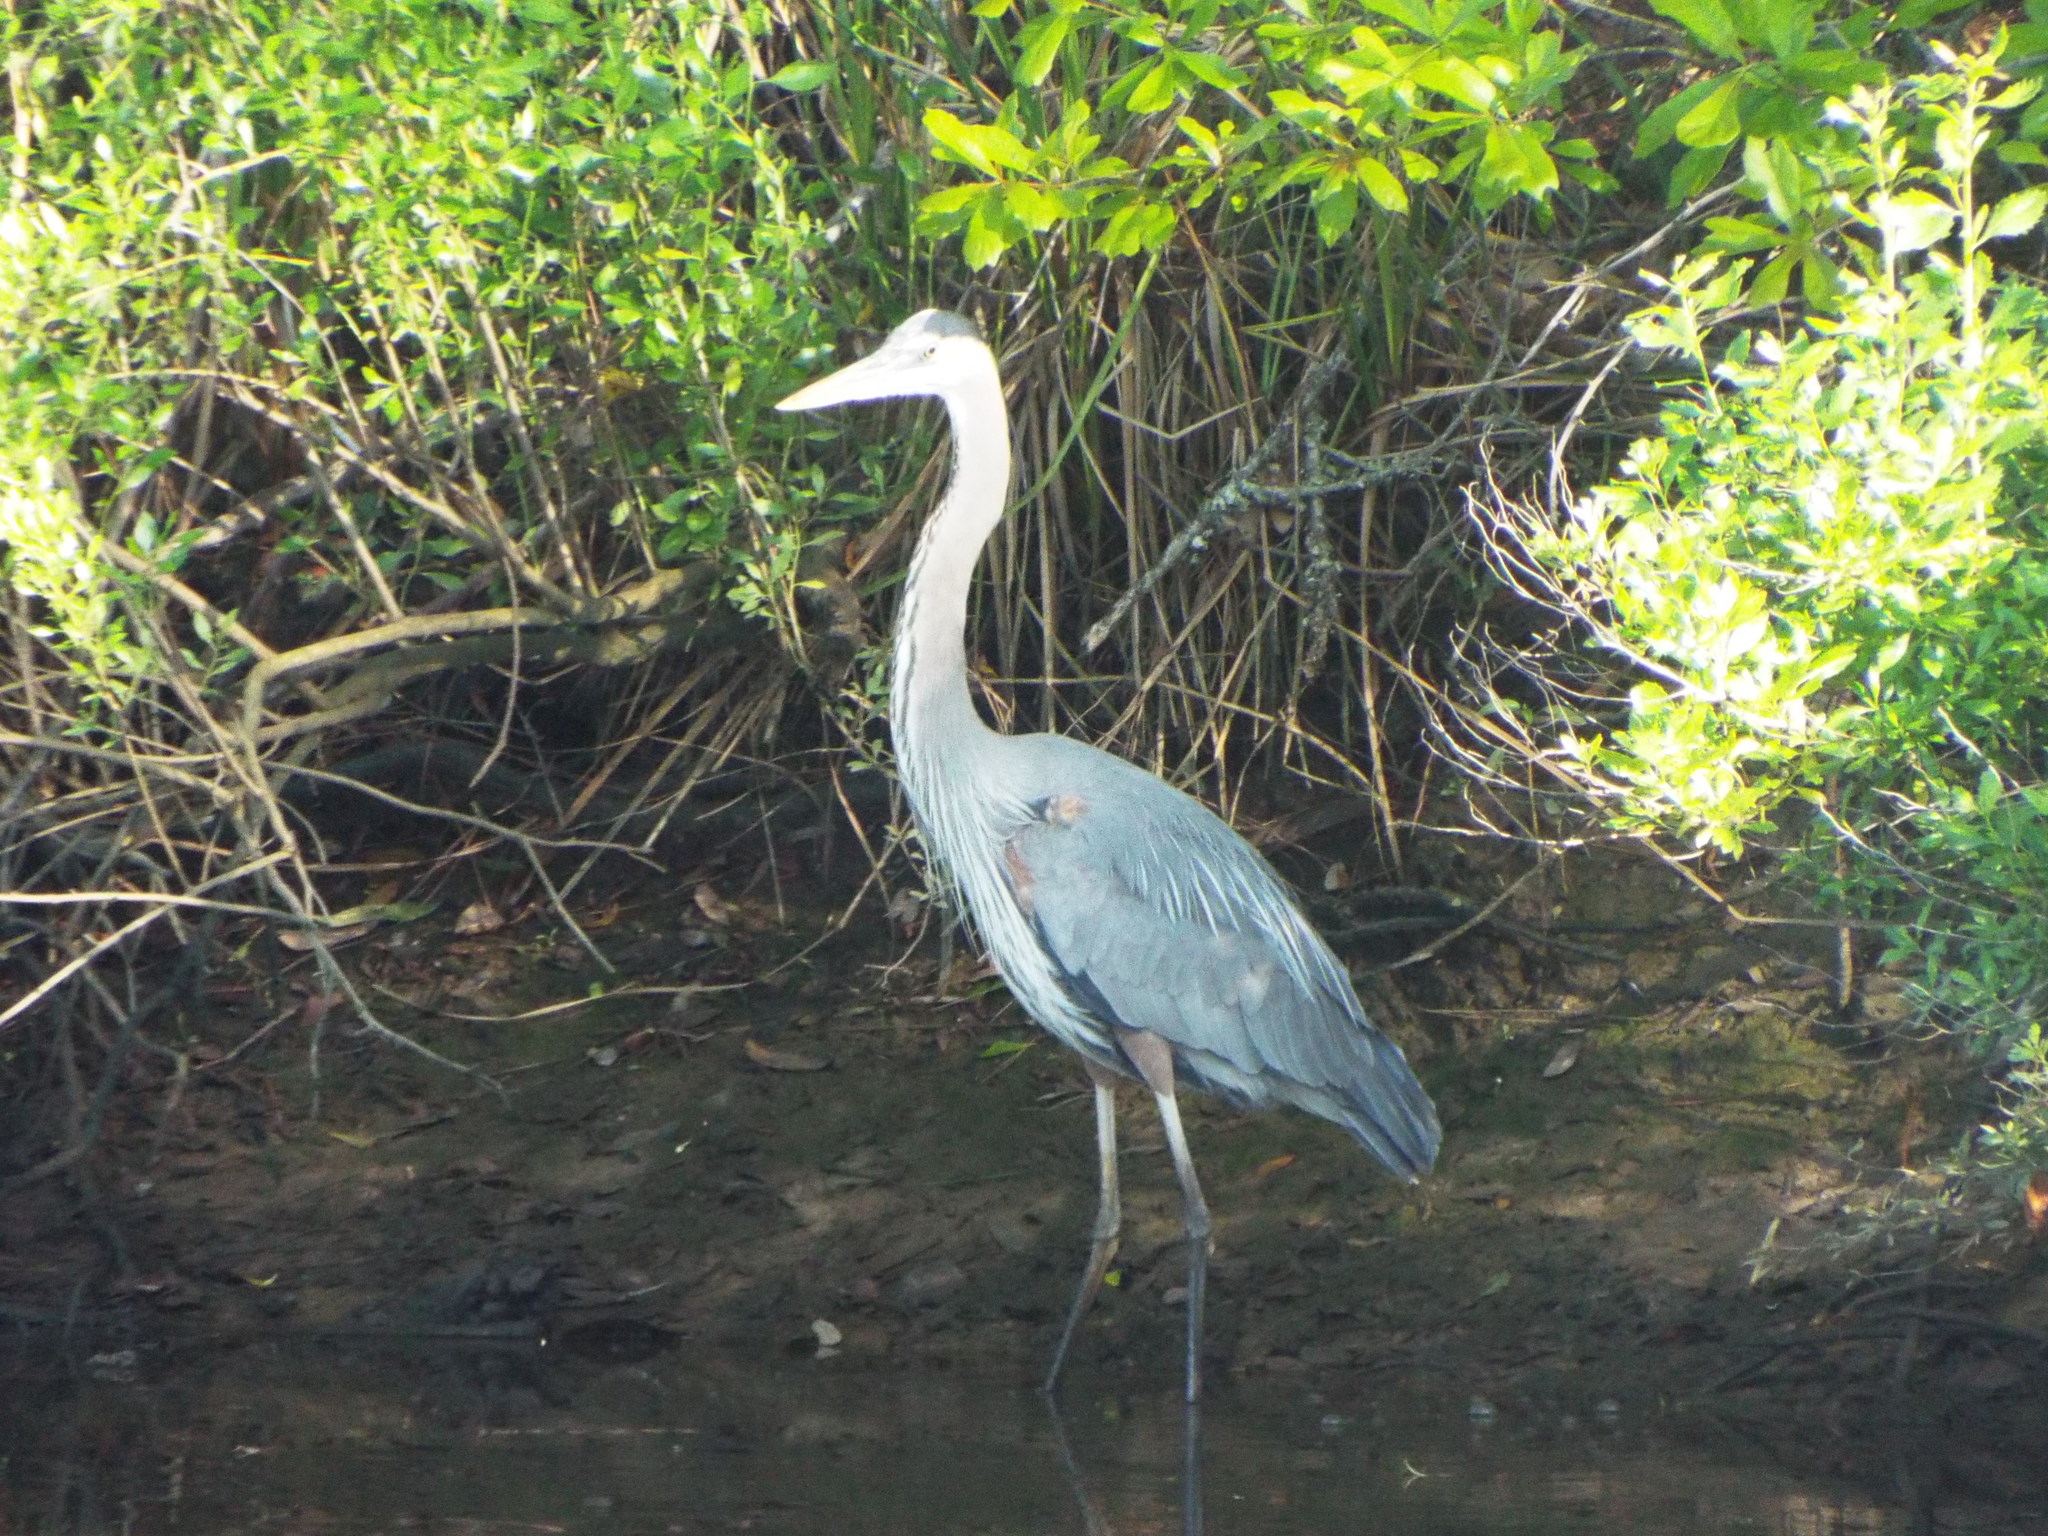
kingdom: Animalia
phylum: Chordata
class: Aves
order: Pelecaniformes
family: Ardeidae
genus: Ardea
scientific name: Ardea herodias
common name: Great blue heron
